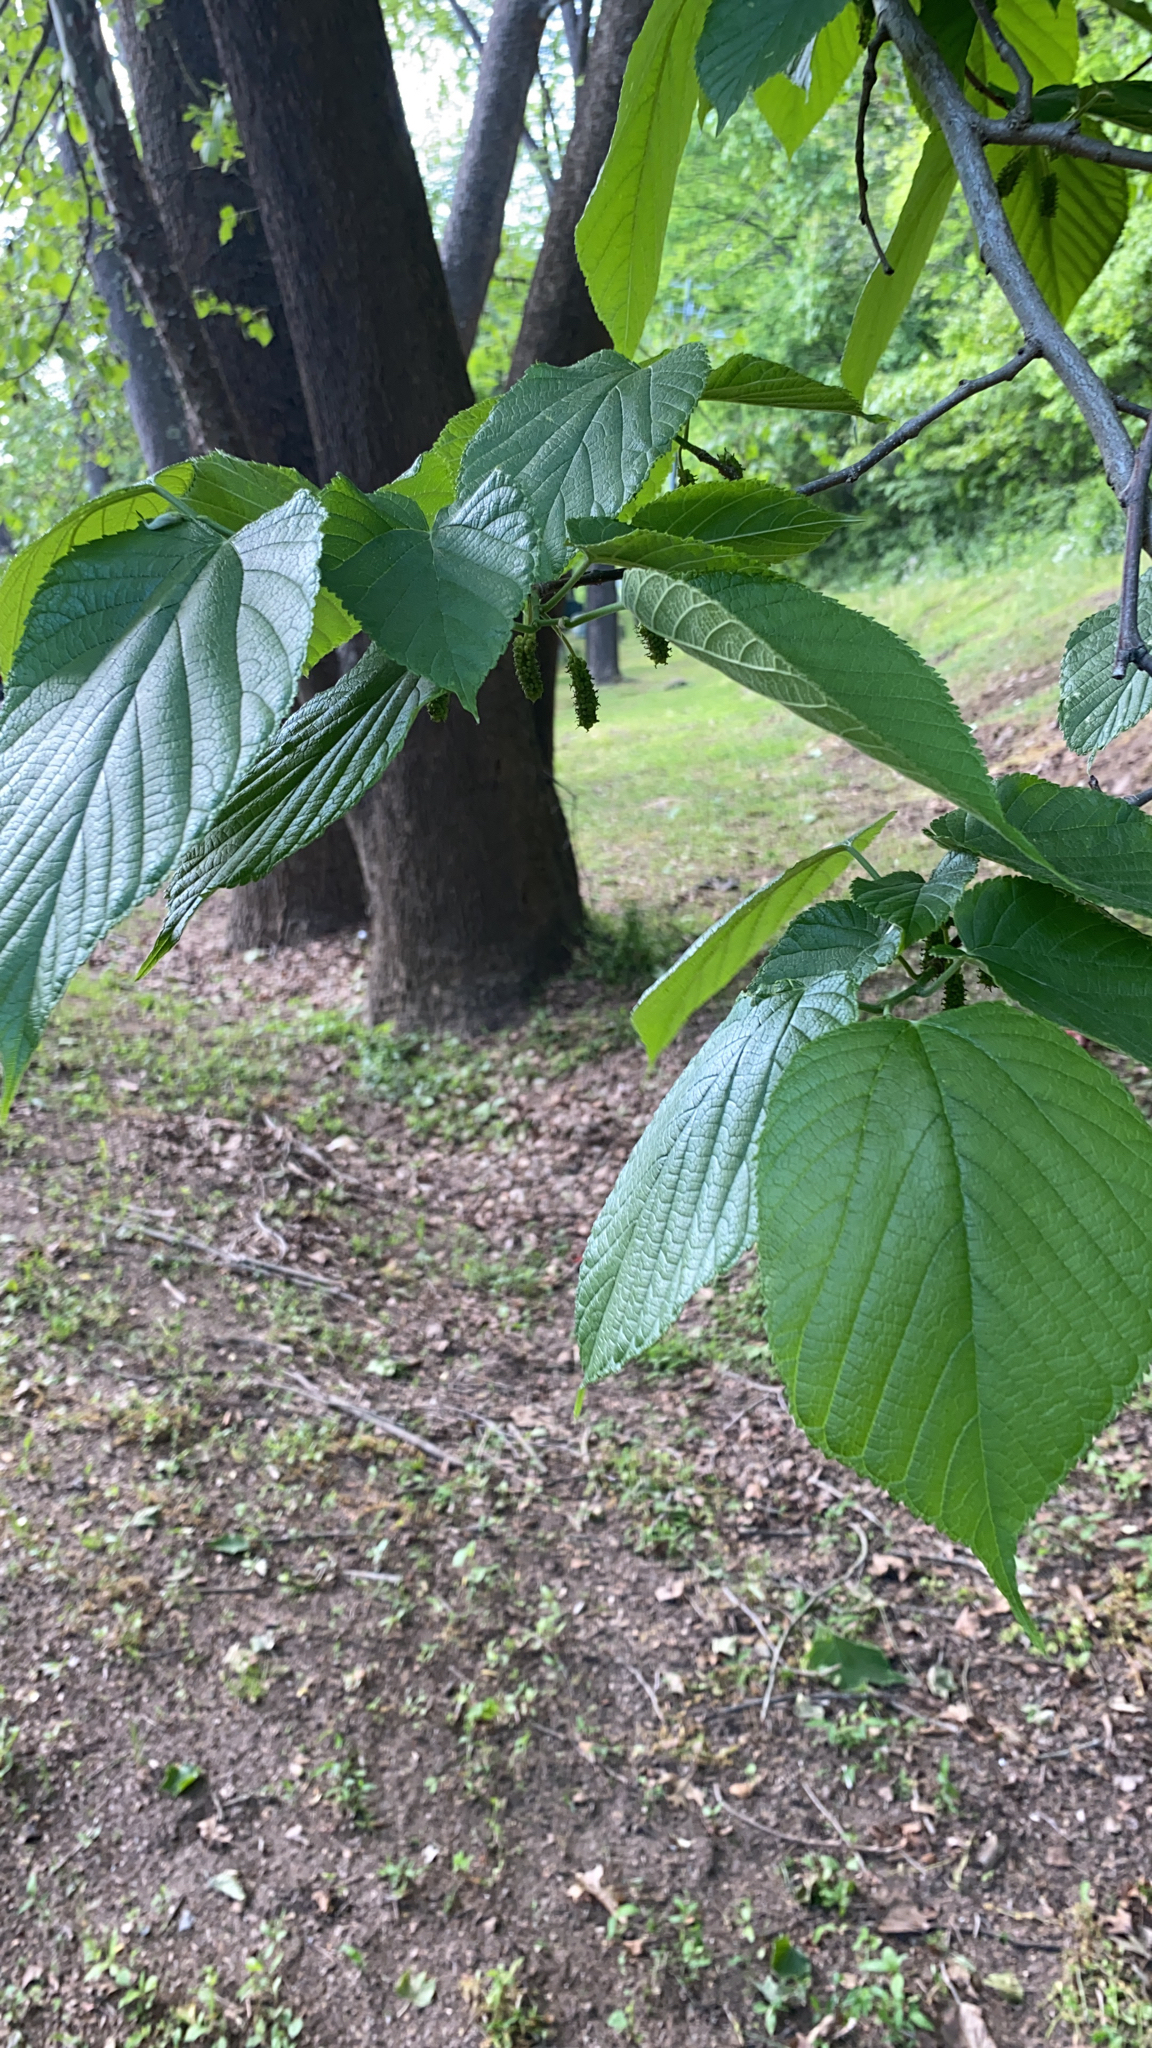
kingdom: Plantae
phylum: Tracheophyta
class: Magnoliopsida
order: Rosales
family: Moraceae
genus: Morus
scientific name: Morus rubra
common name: Red mulberry
